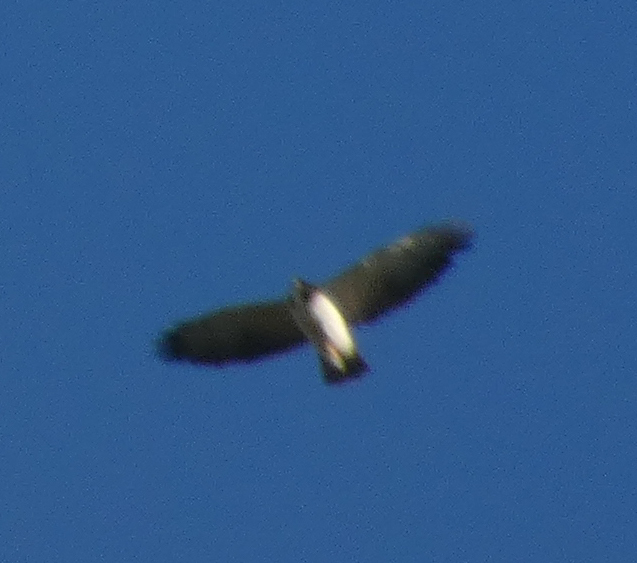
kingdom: Animalia
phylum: Chordata
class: Aves
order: Accipitriformes
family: Accipitridae
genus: Buteo
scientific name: Buteo brachyurus
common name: Short-tailed hawk
